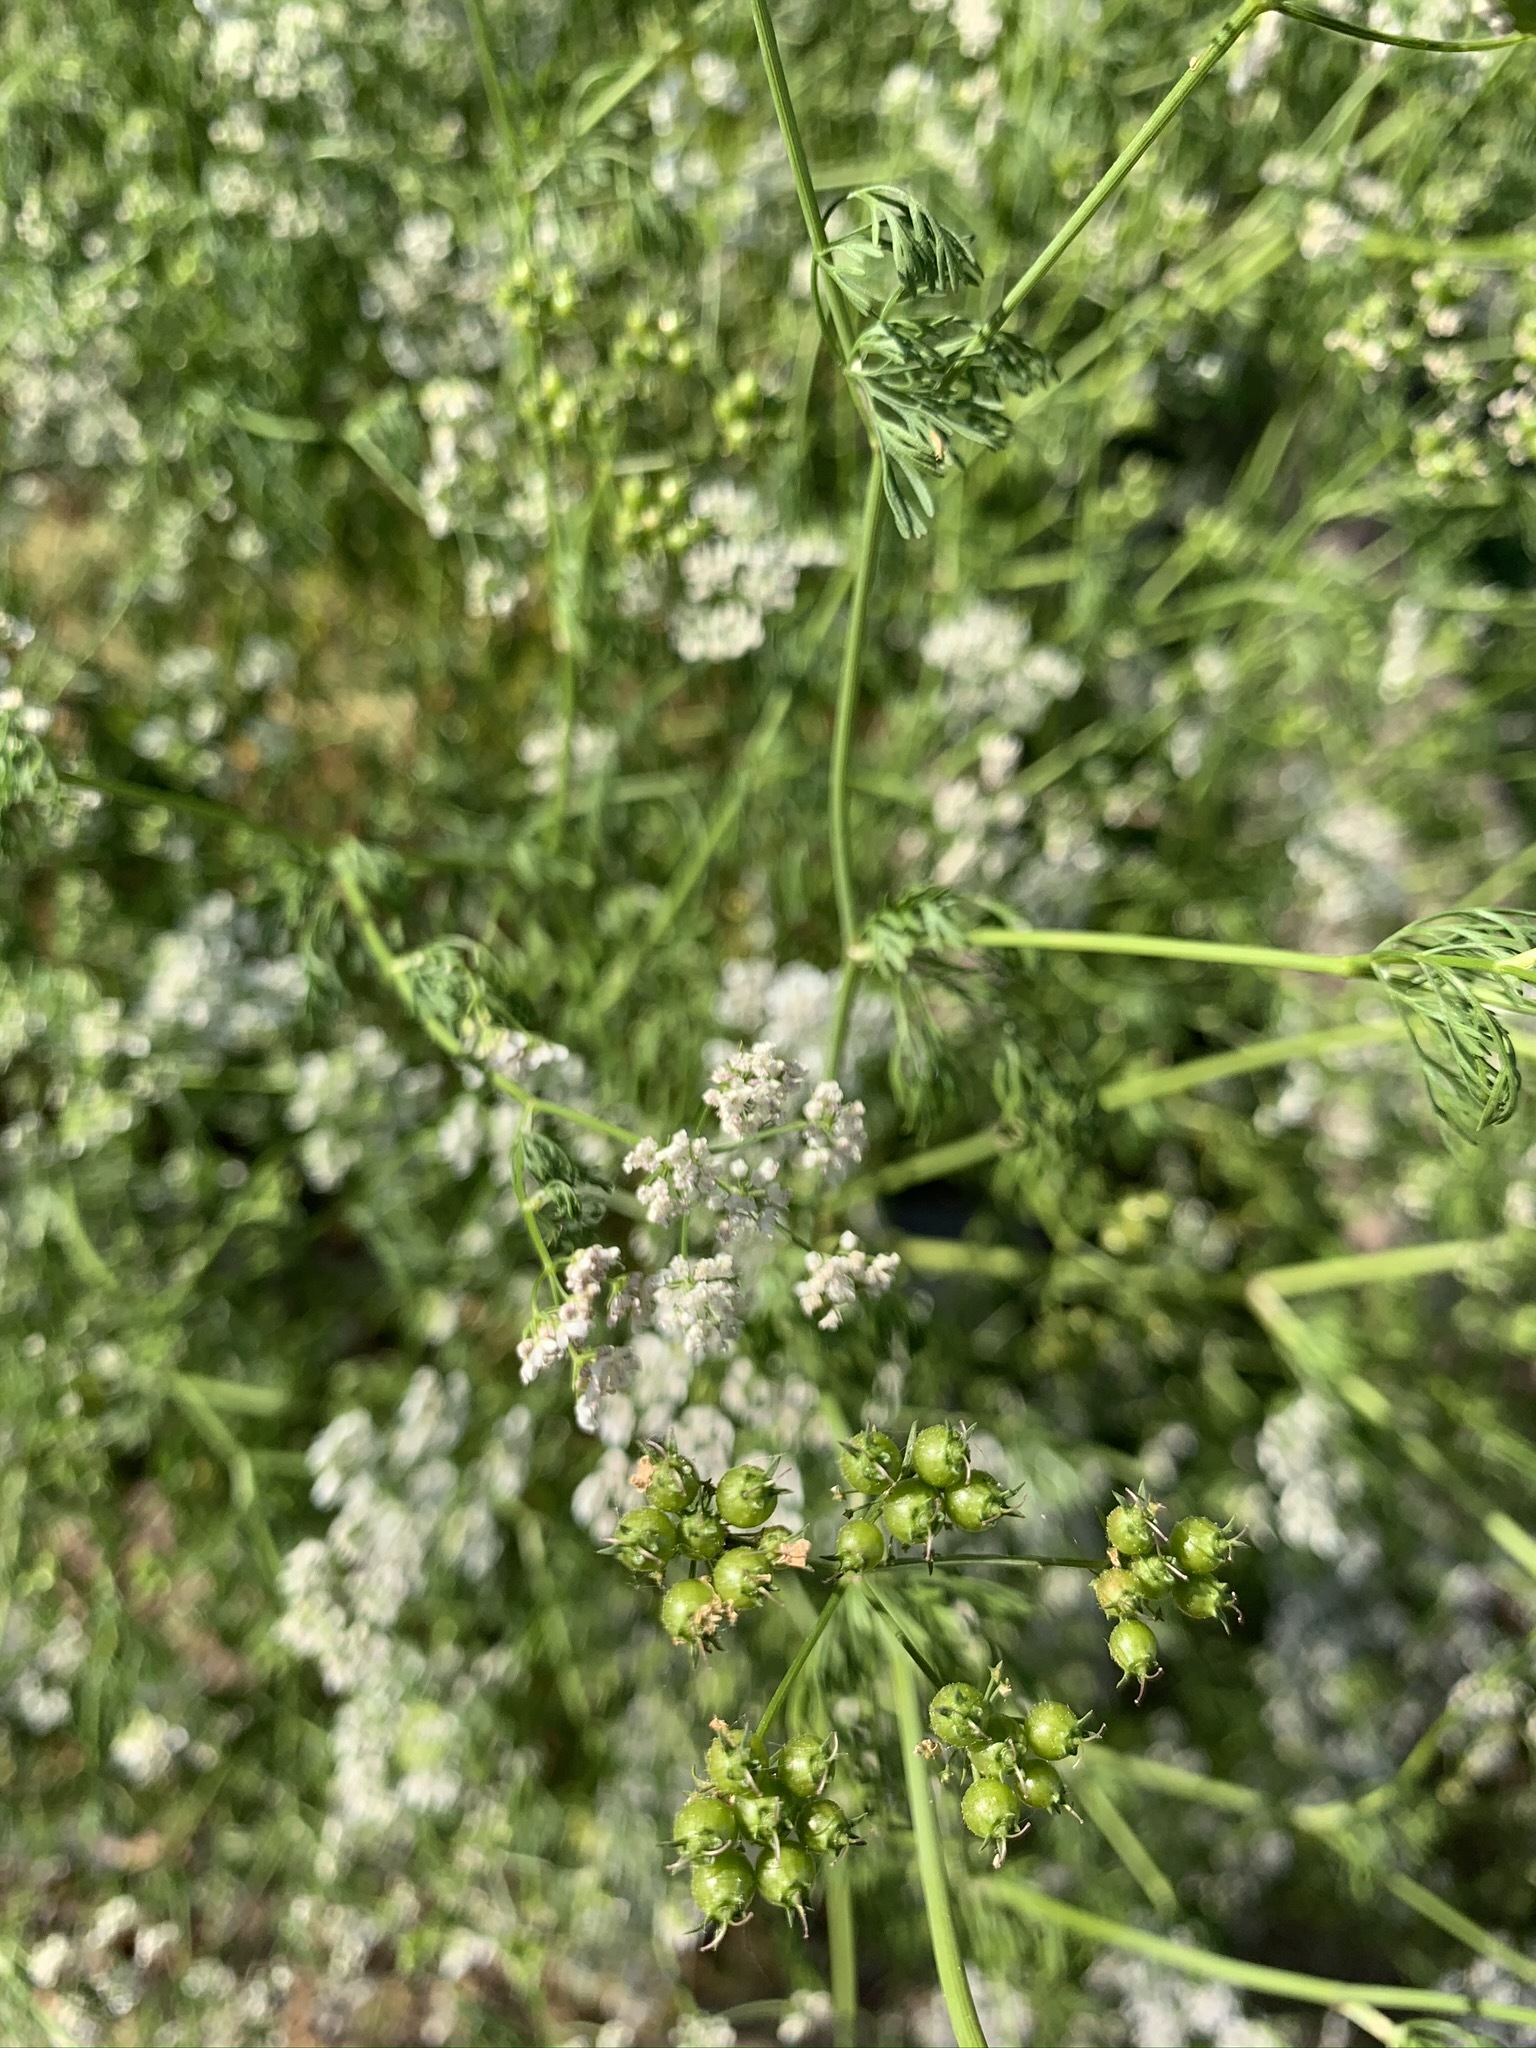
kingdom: Plantae
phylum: Tracheophyta
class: Magnoliopsida
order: Apiales
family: Apiaceae
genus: Coriandrum
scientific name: Coriandrum sativum
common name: Coriander
